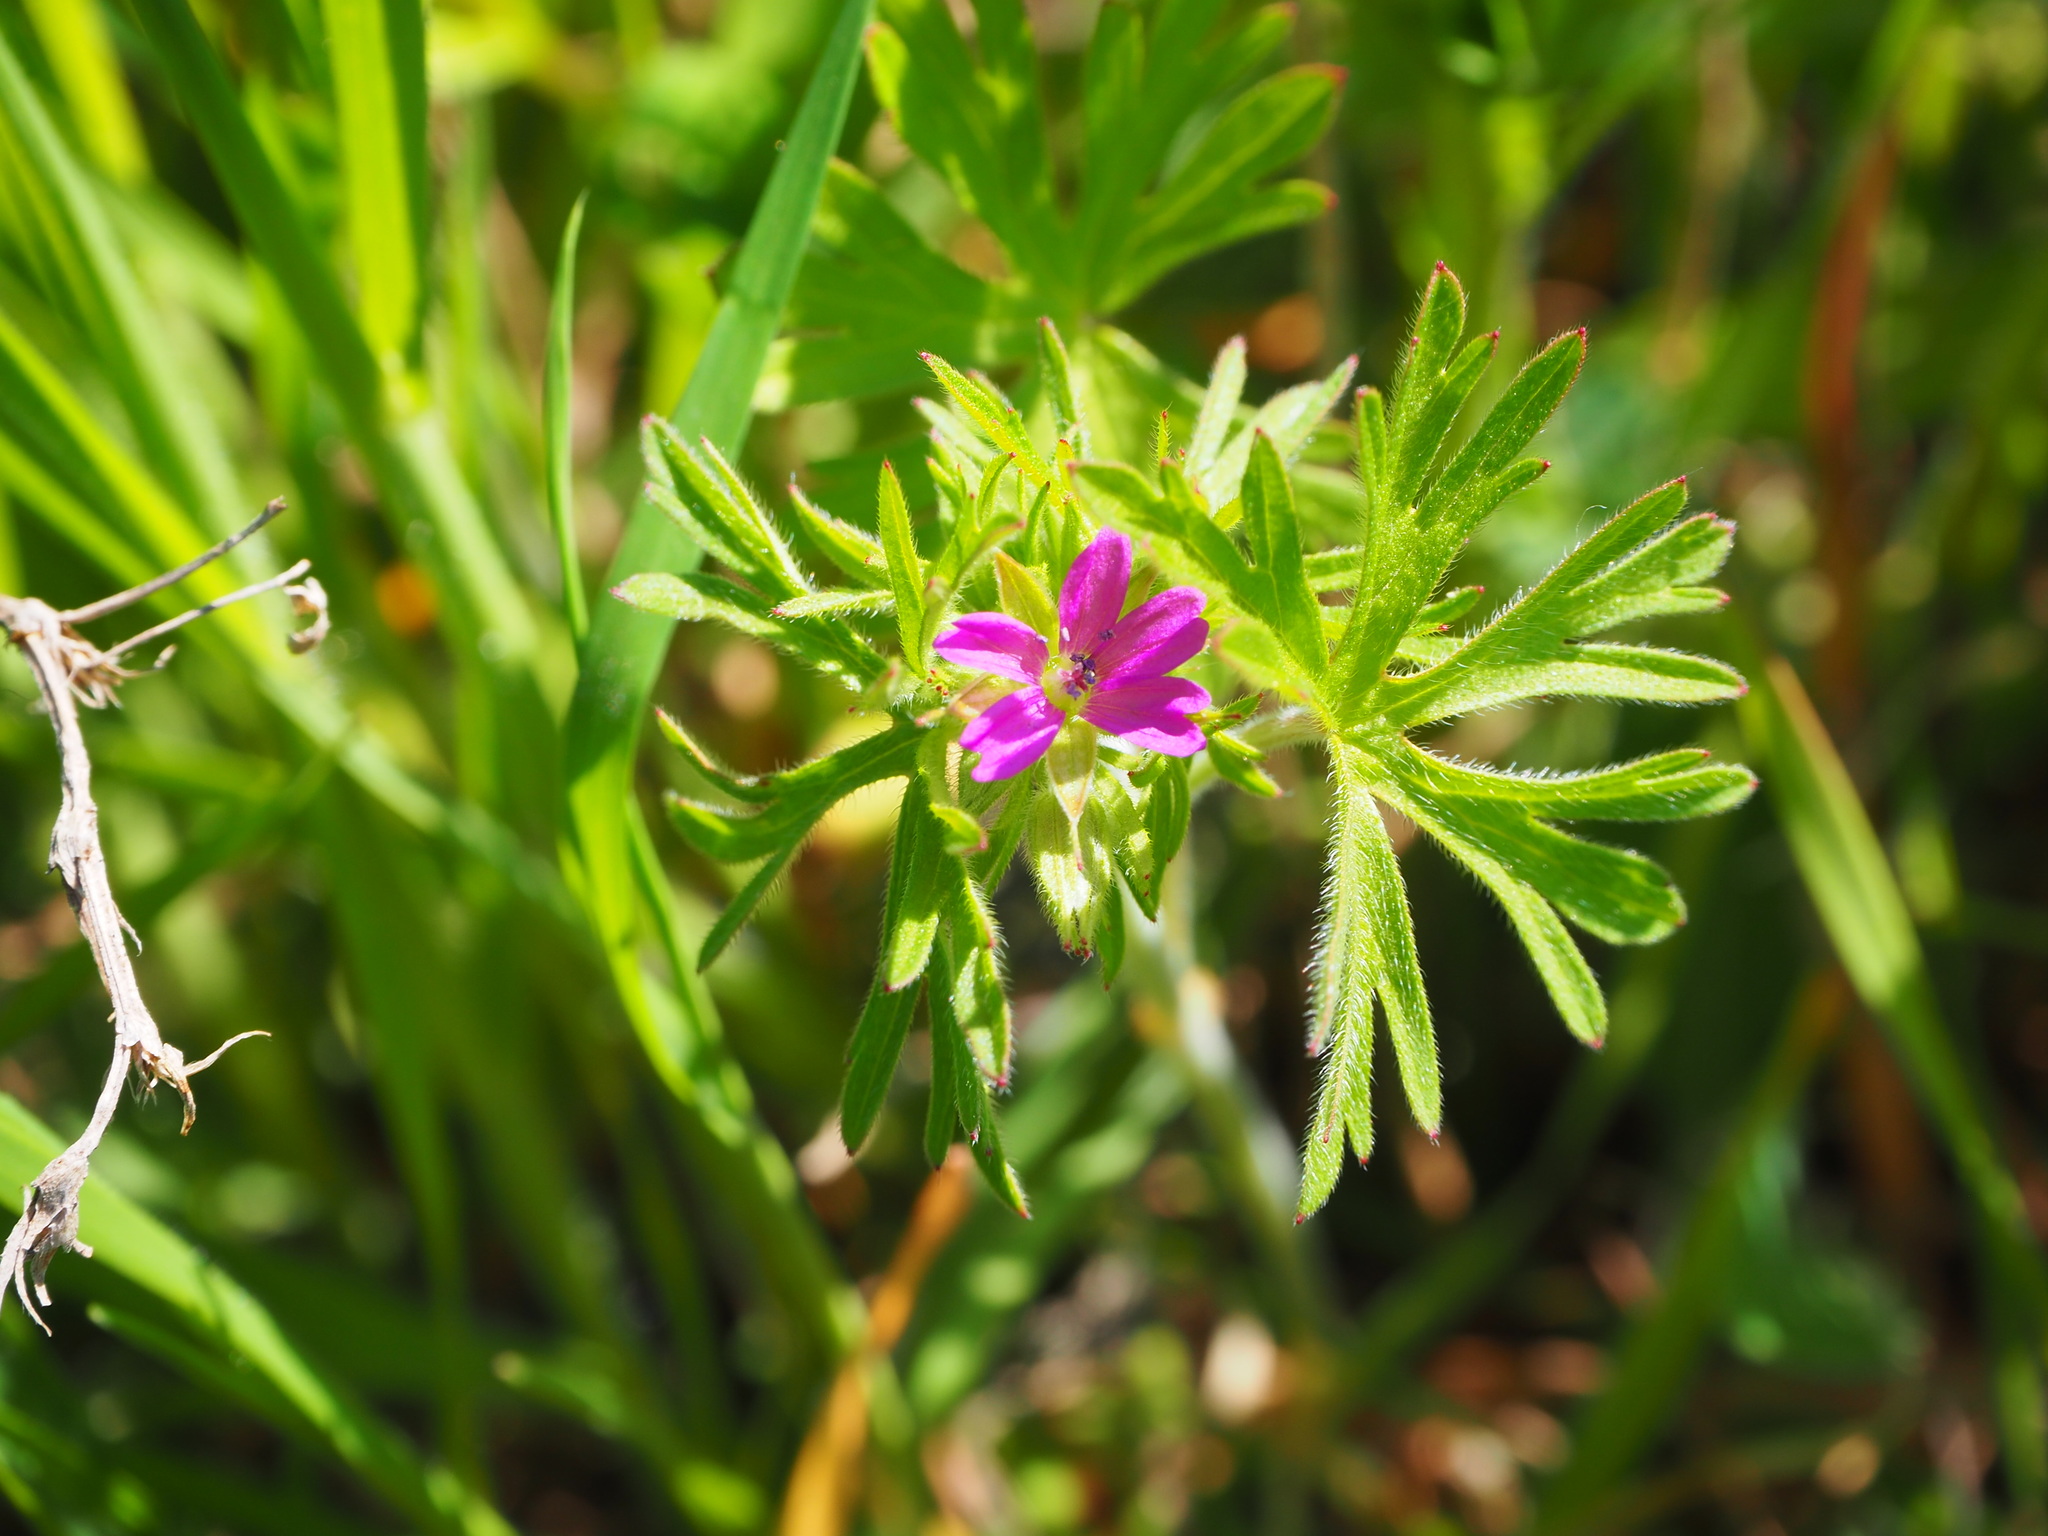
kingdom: Plantae
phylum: Tracheophyta
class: Magnoliopsida
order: Geraniales
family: Geraniaceae
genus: Geranium
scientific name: Geranium dissectum
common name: Cut-leaved crane's-bill
